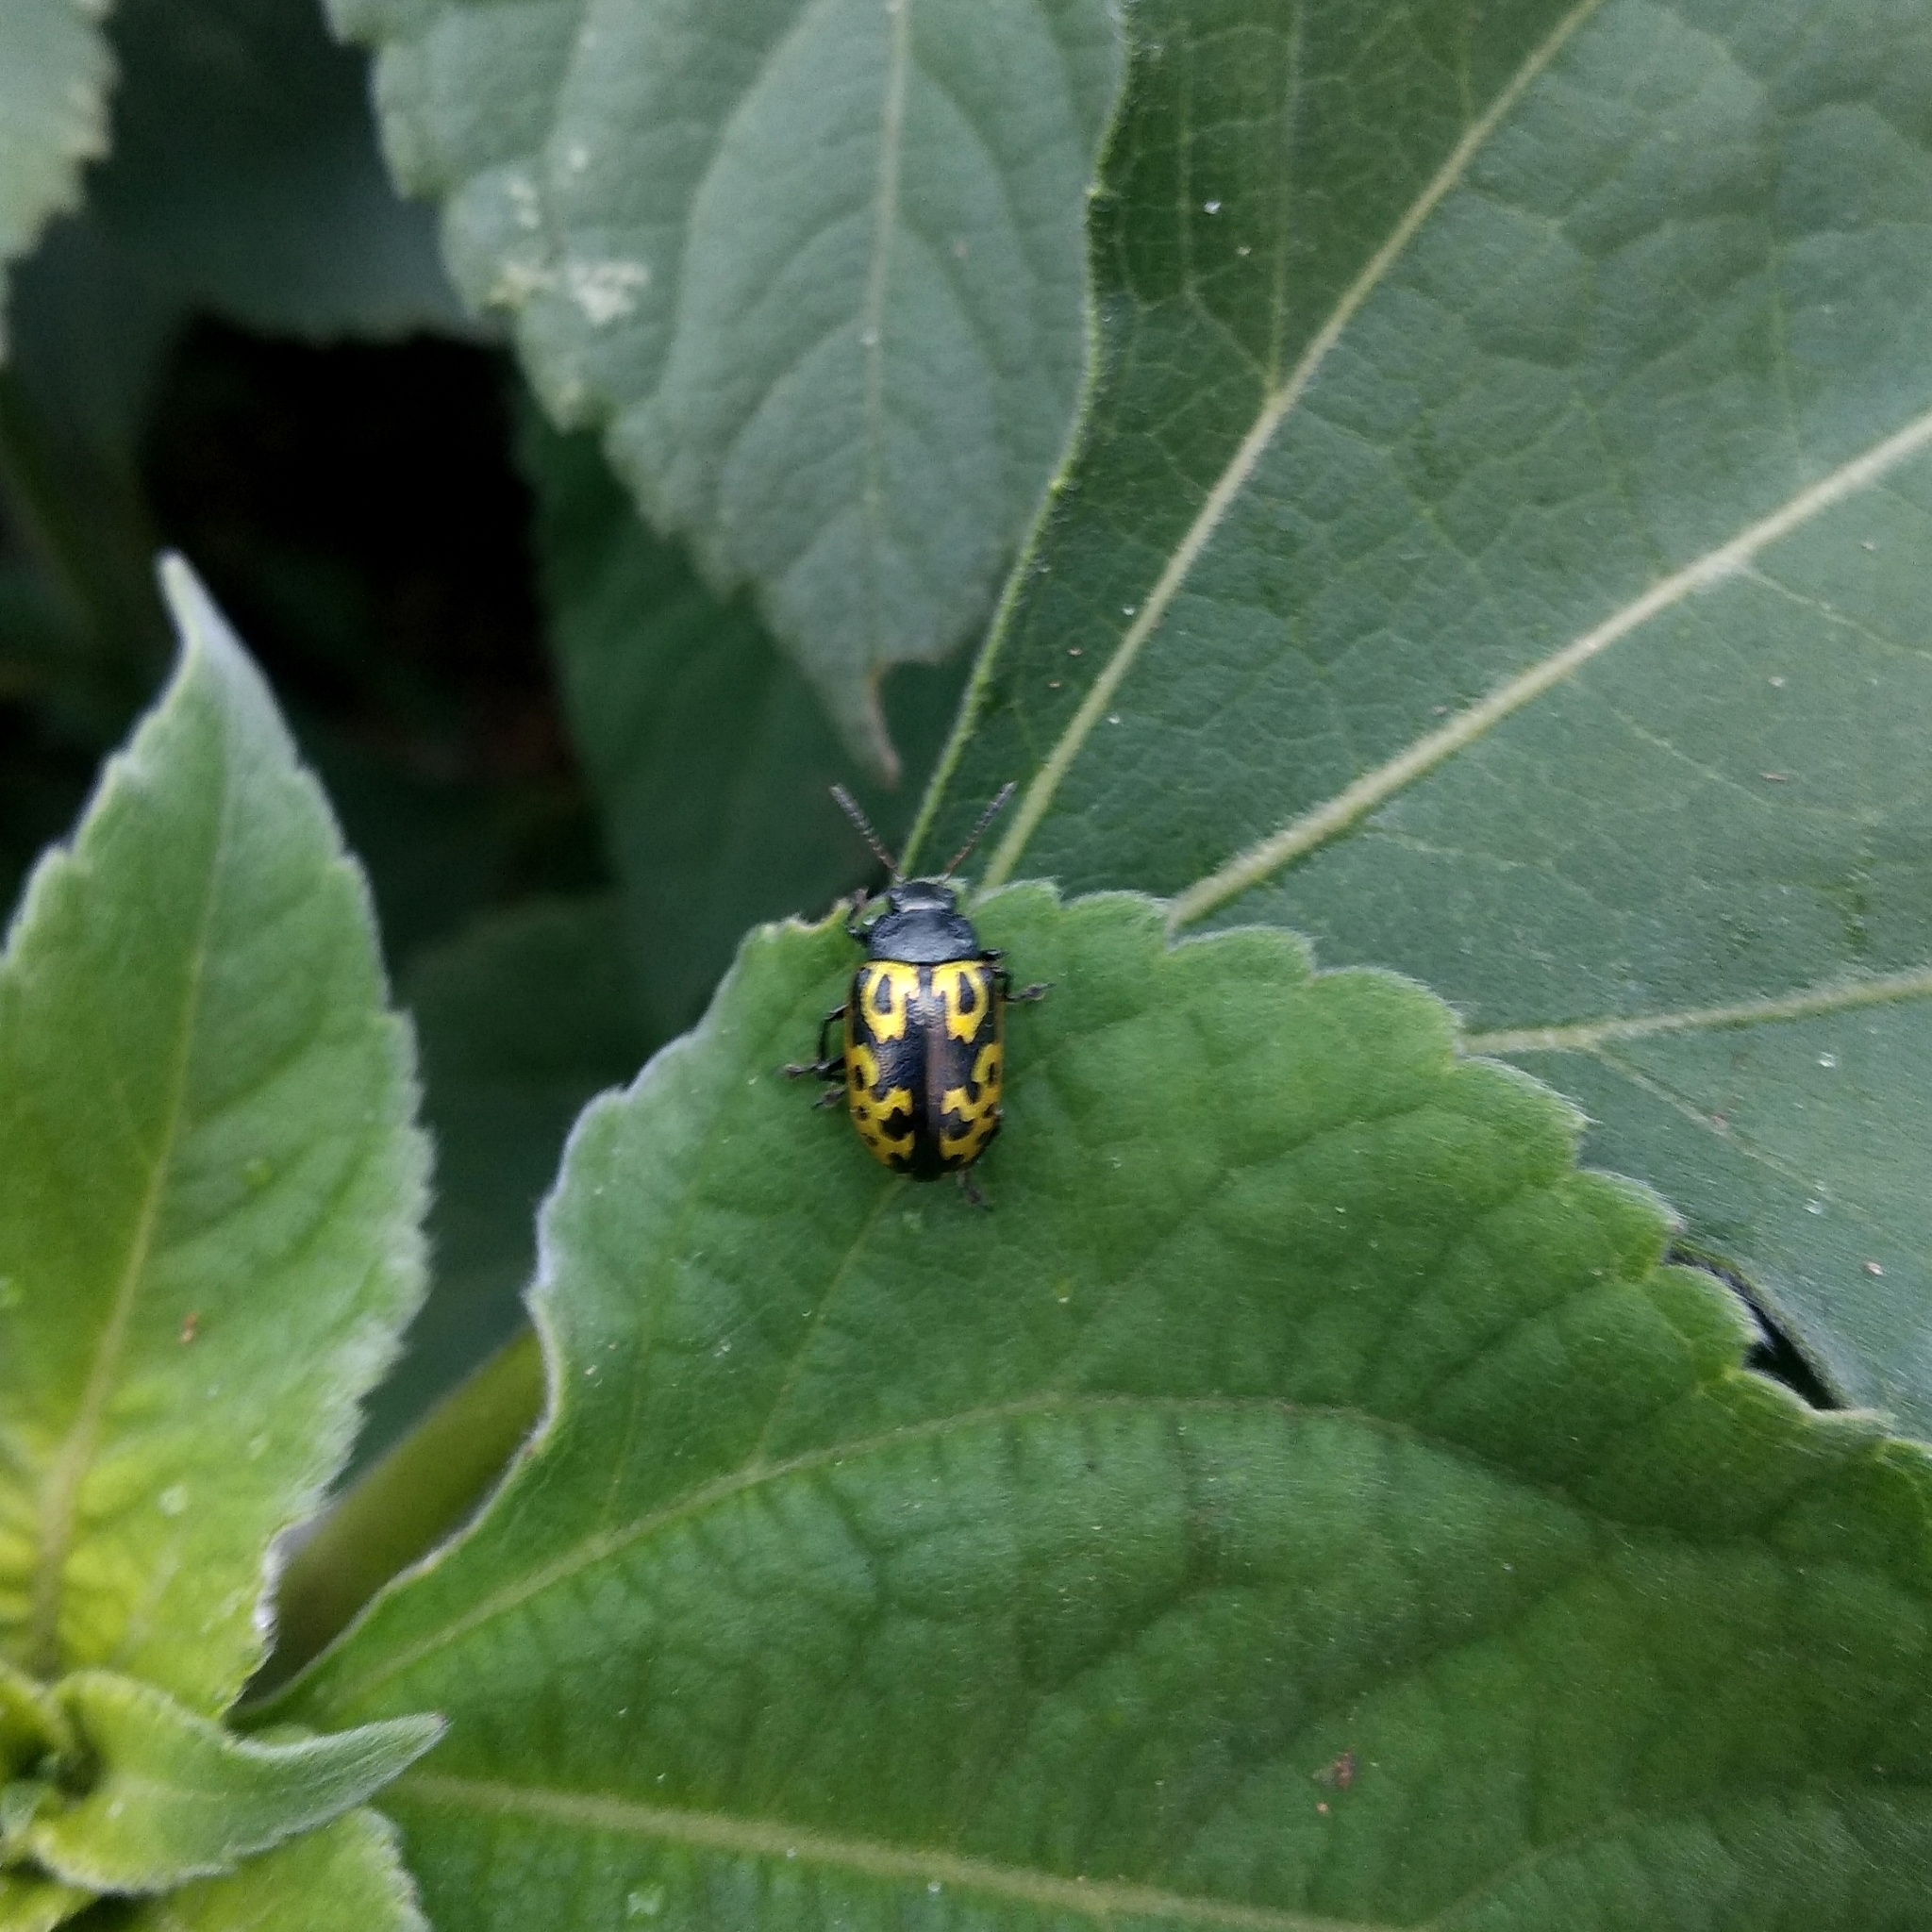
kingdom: Animalia
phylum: Arthropoda
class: Insecta
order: Coleoptera
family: Chrysomelidae
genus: Calligrapha
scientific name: Calligrapha
